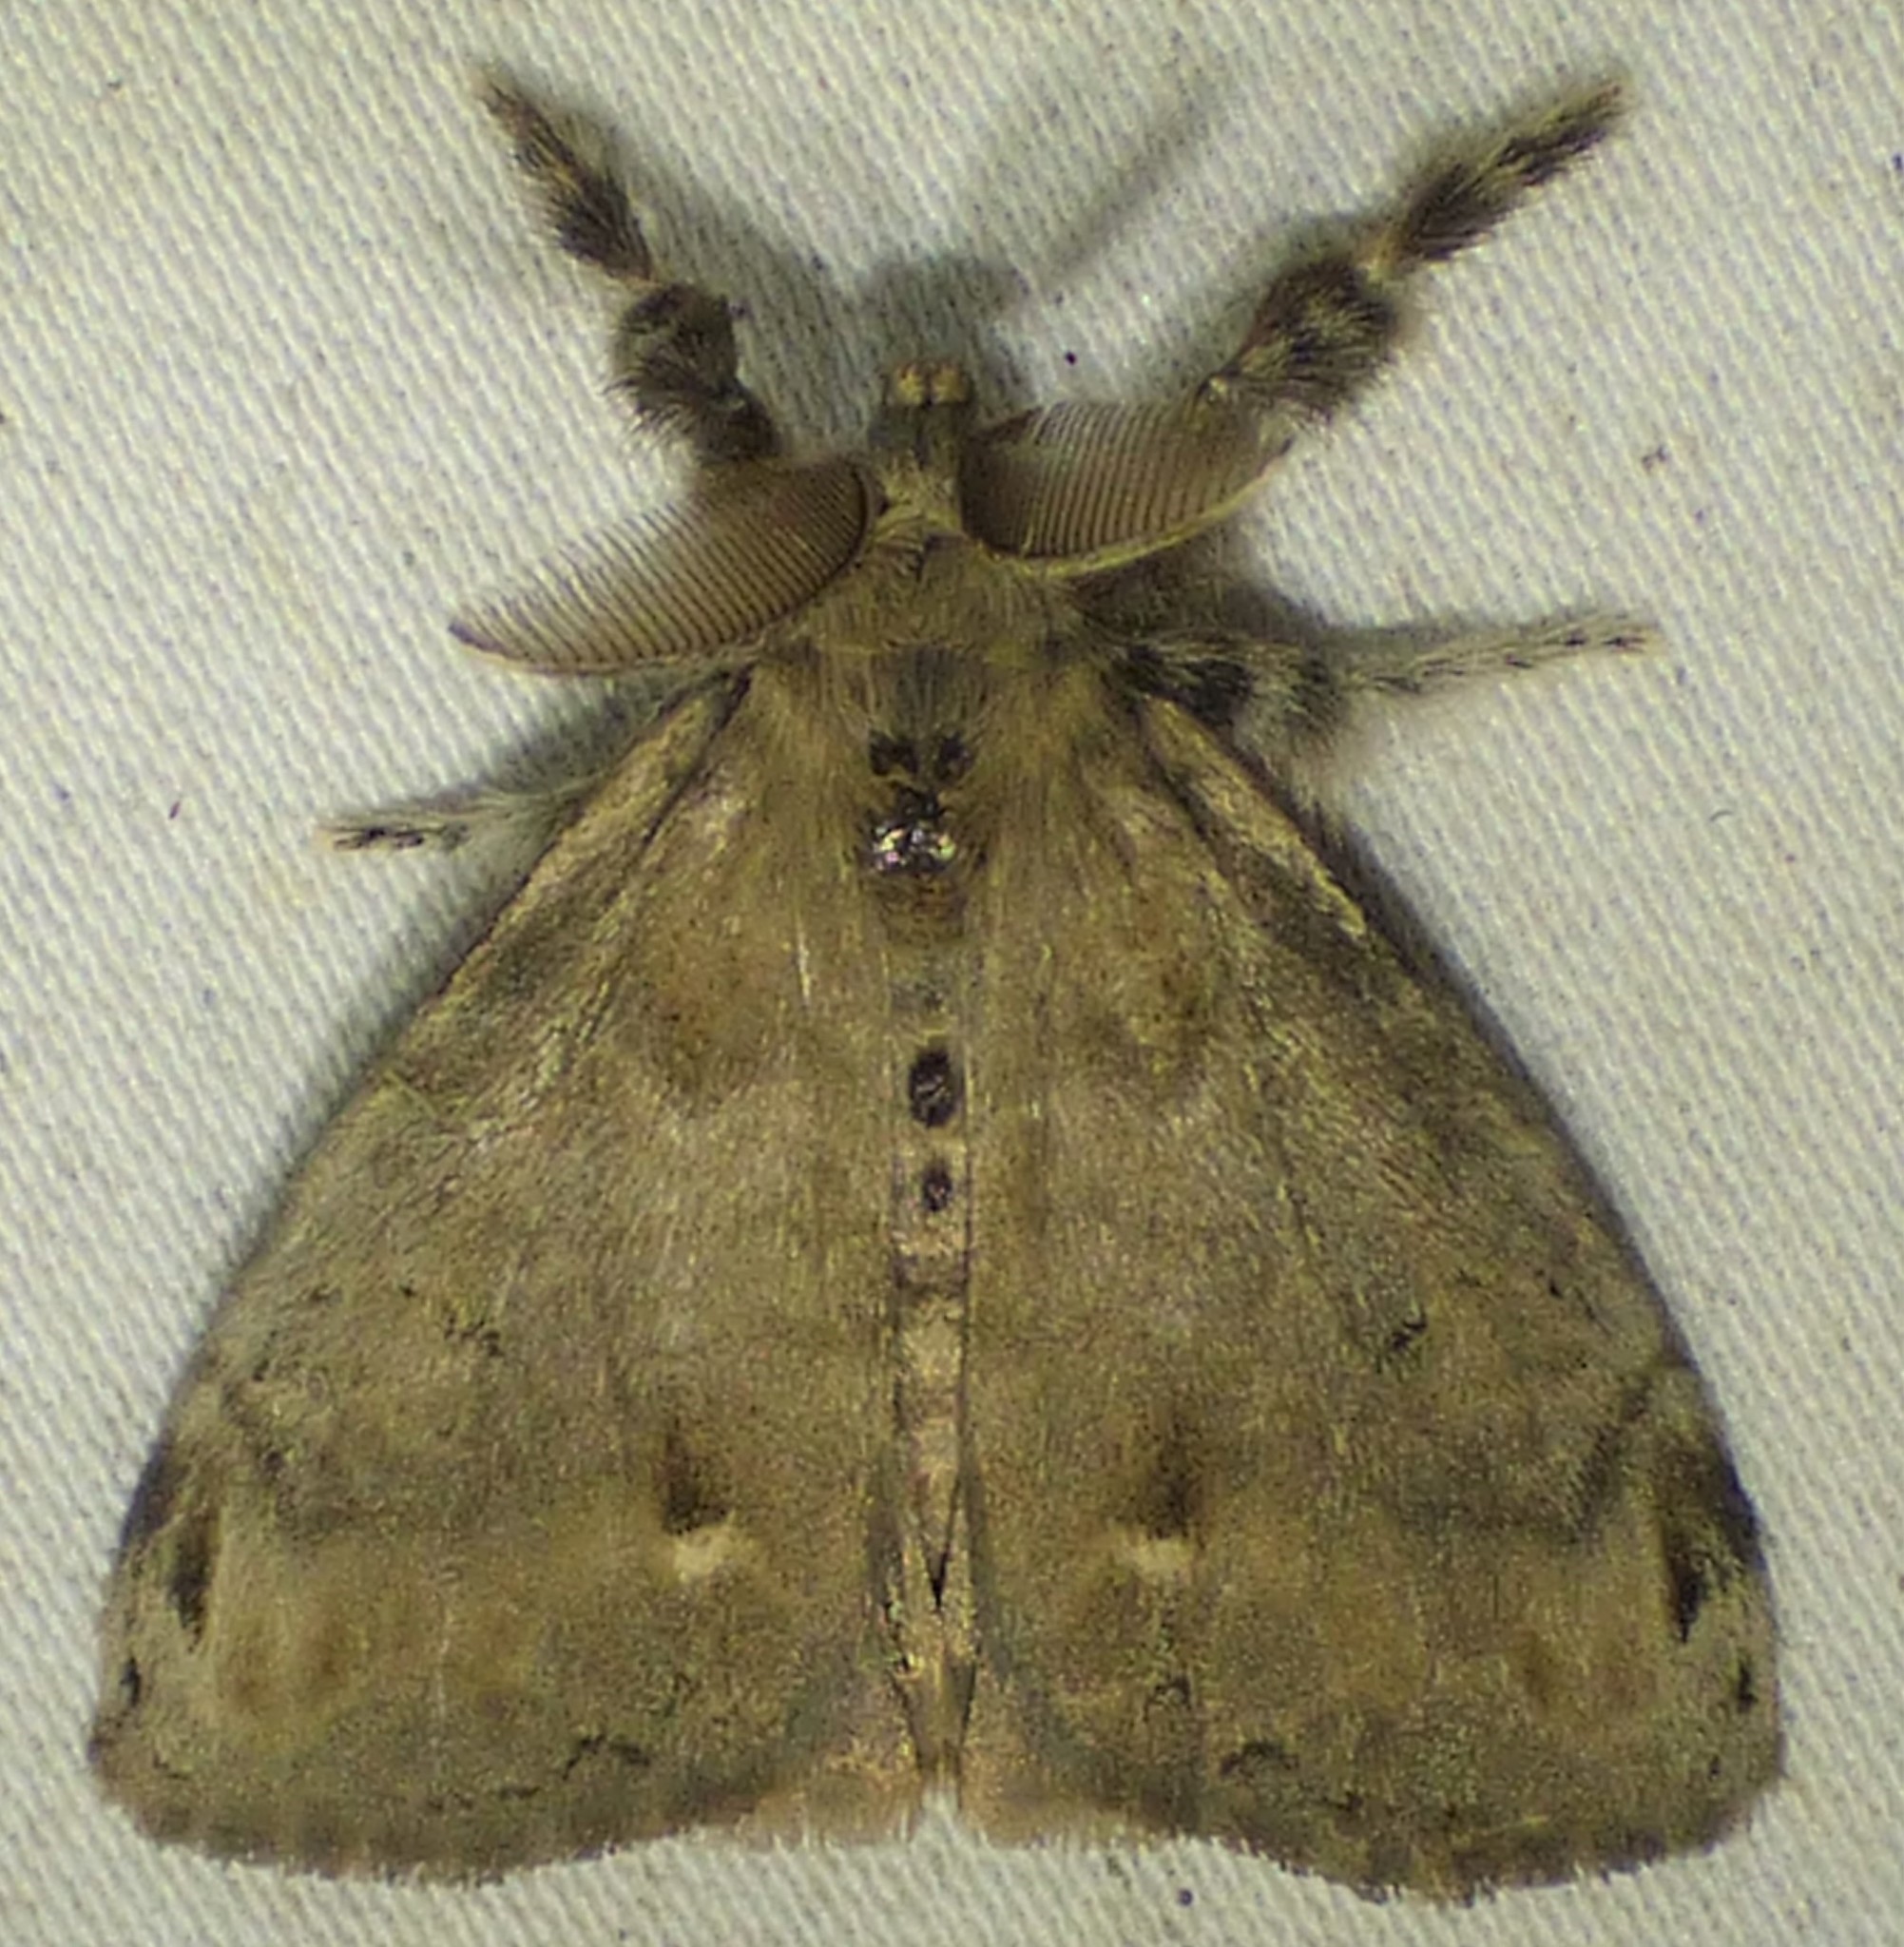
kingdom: Animalia
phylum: Arthropoda
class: Insecta
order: Lepidoptera
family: Erebidae
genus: Orgyia
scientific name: Orgyia leucostigma
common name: White-marked tussock moth
